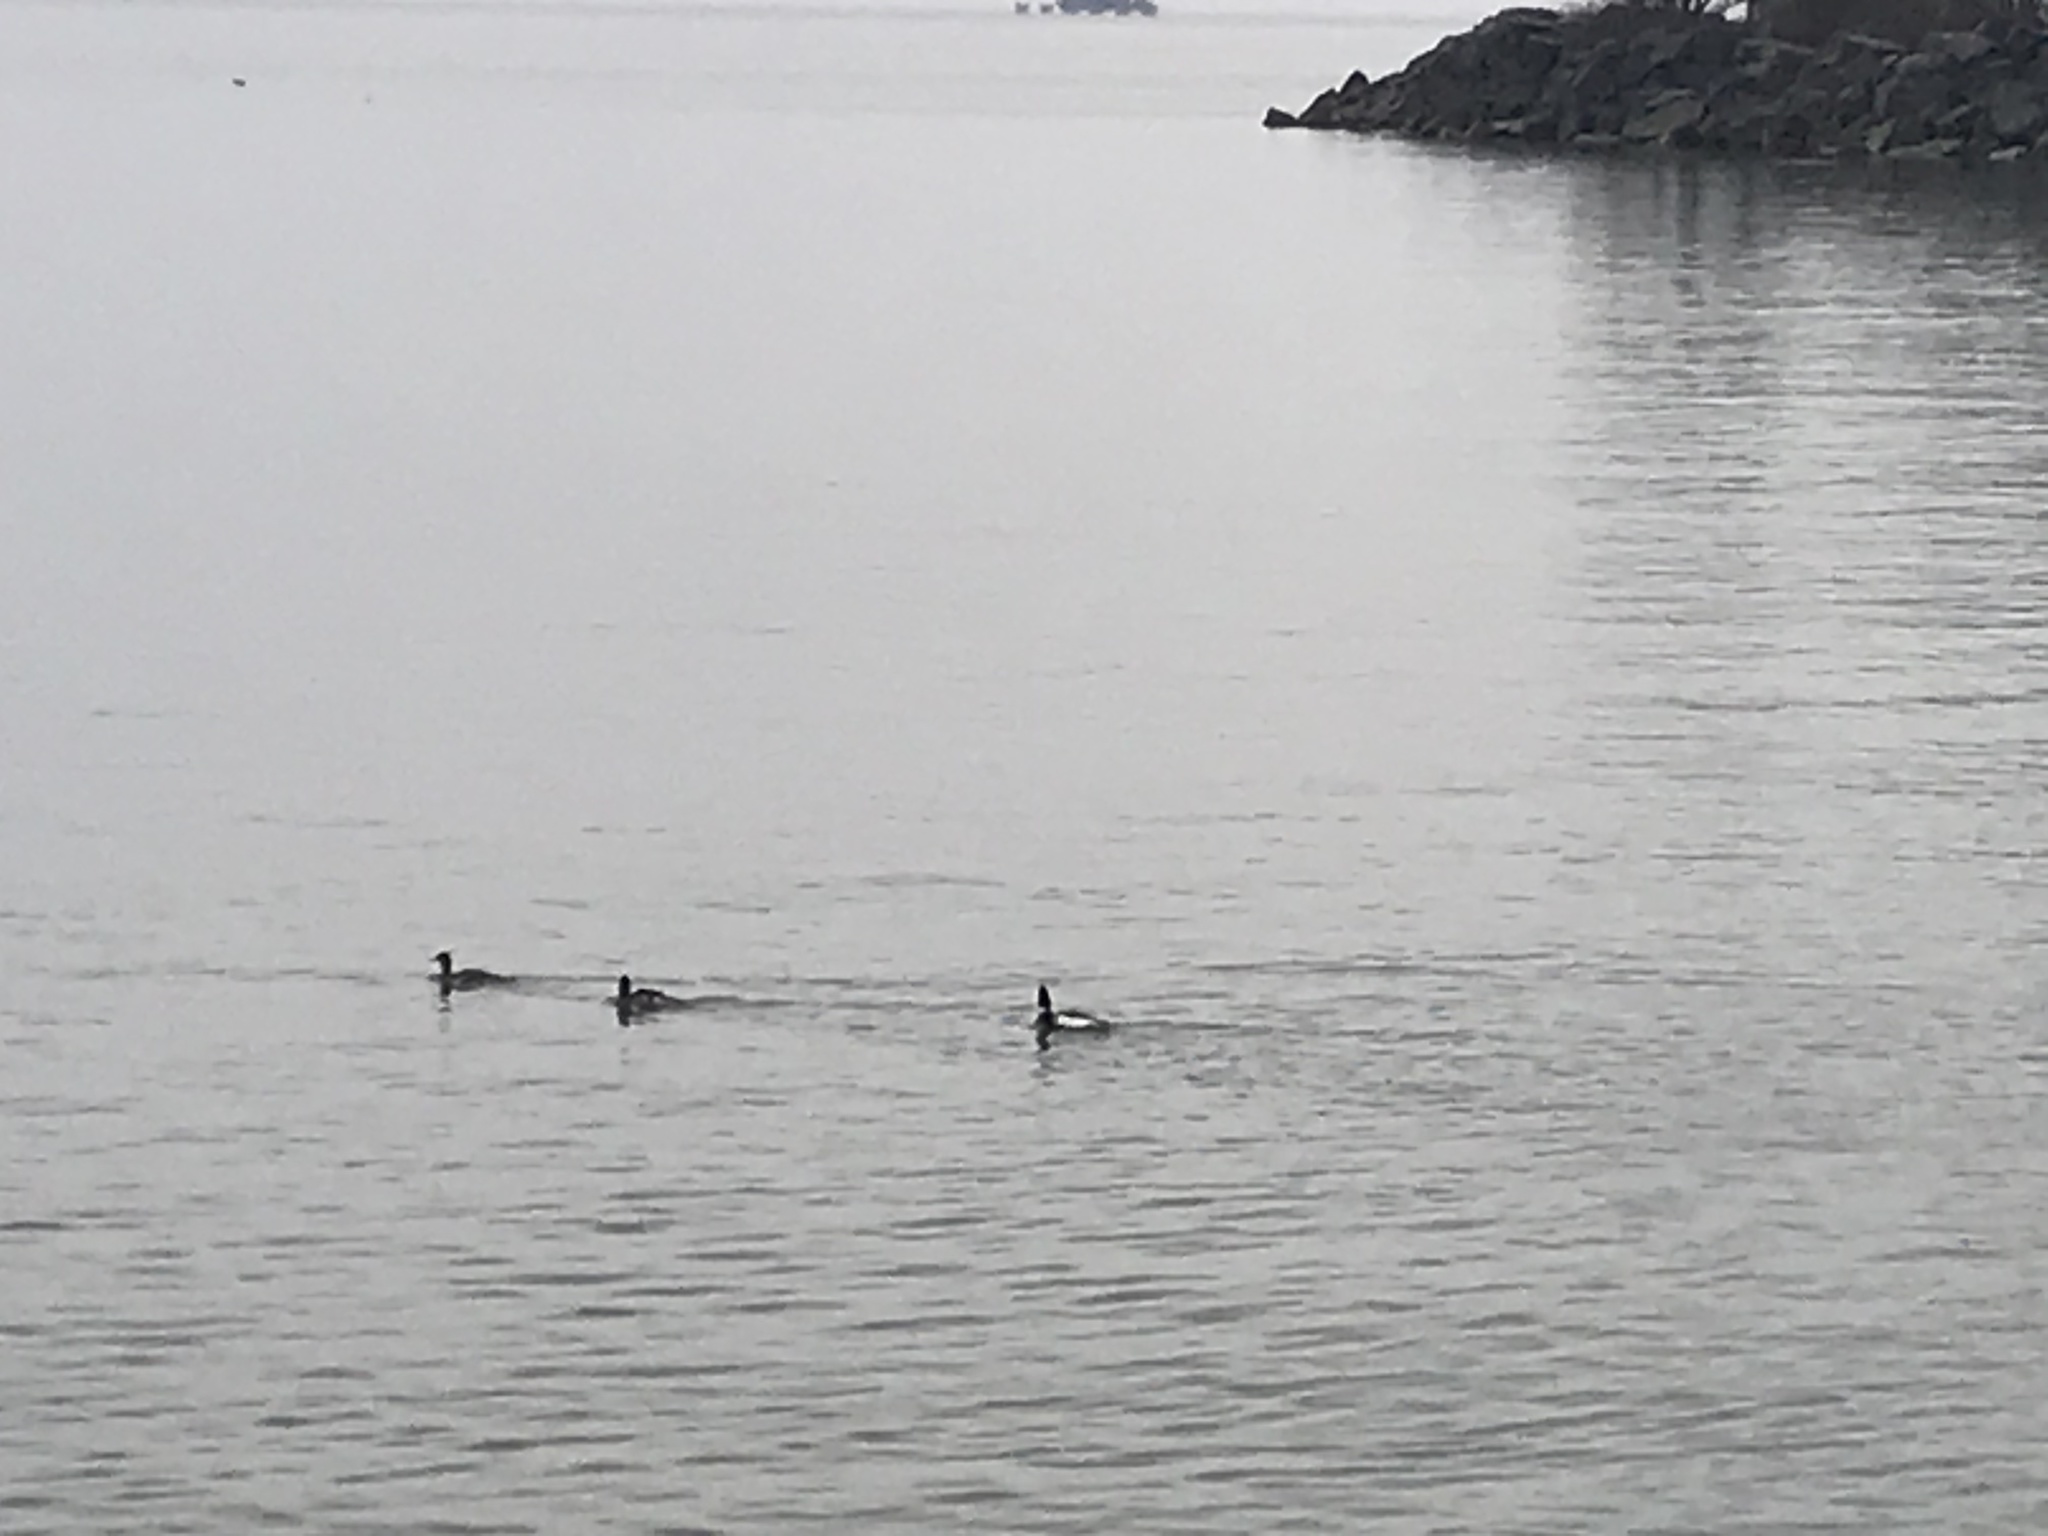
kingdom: Animalia
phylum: Chordata
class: Aves
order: Anseriformes
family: Anatidae
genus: Mergus
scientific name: Mergus serrator
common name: Red-breasted merganser
